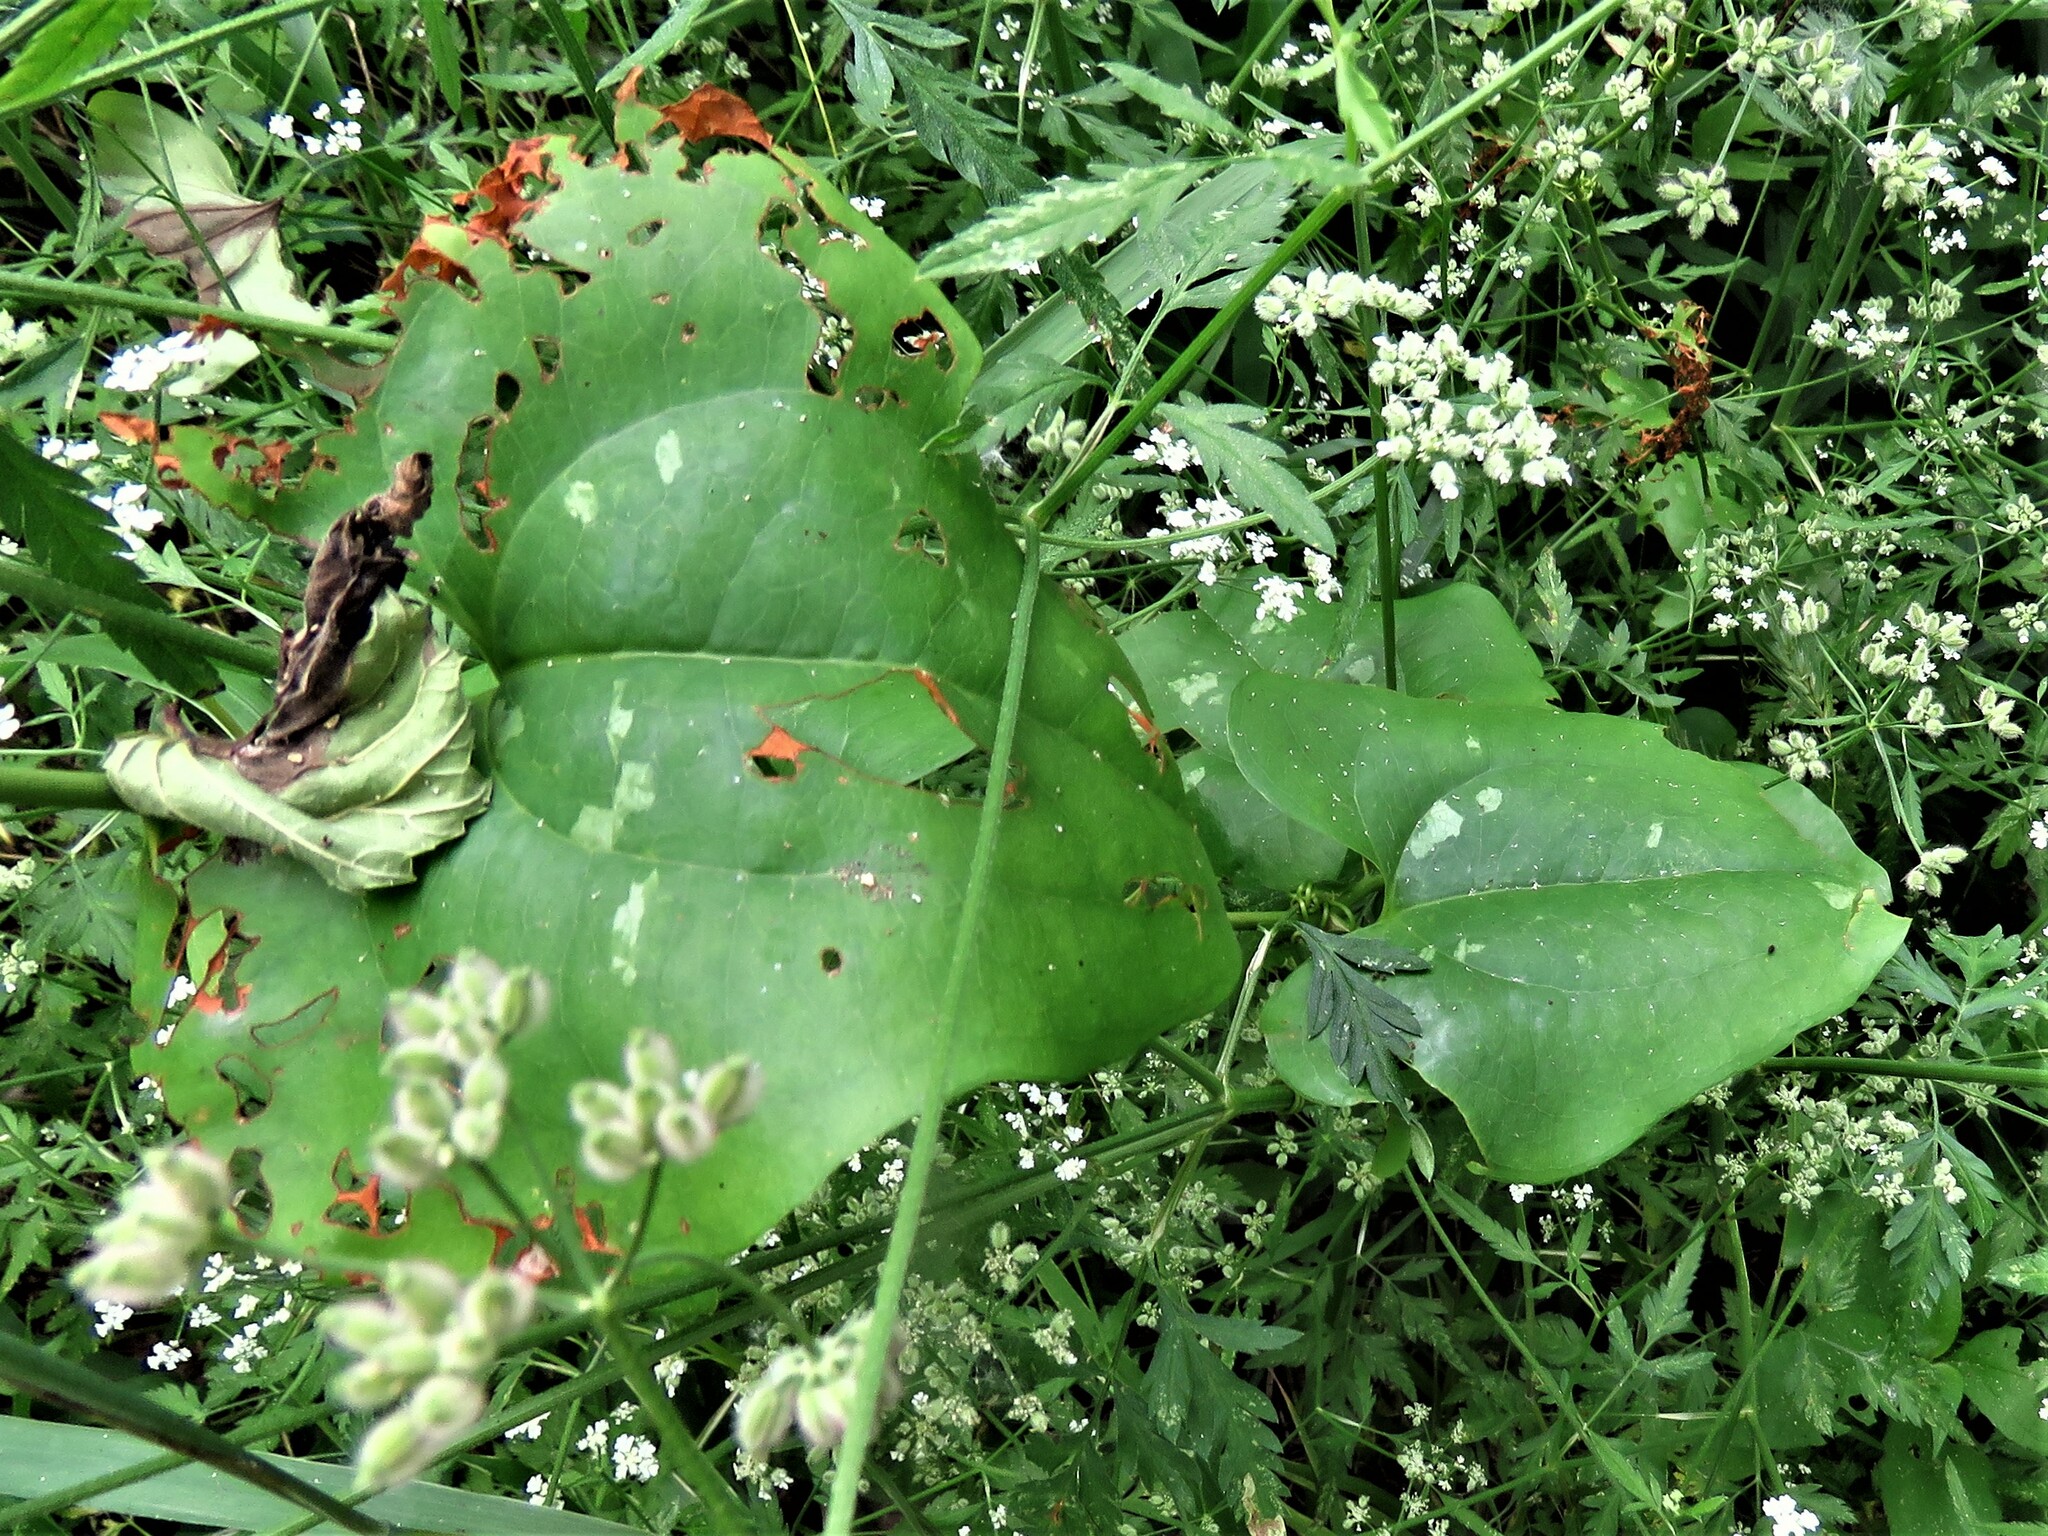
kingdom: Plantae
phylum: Tracheophyta
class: Liliopsida
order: Liliales
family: Smilacaceae
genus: Smilax
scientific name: Smilax bona-nox
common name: Catbrier
